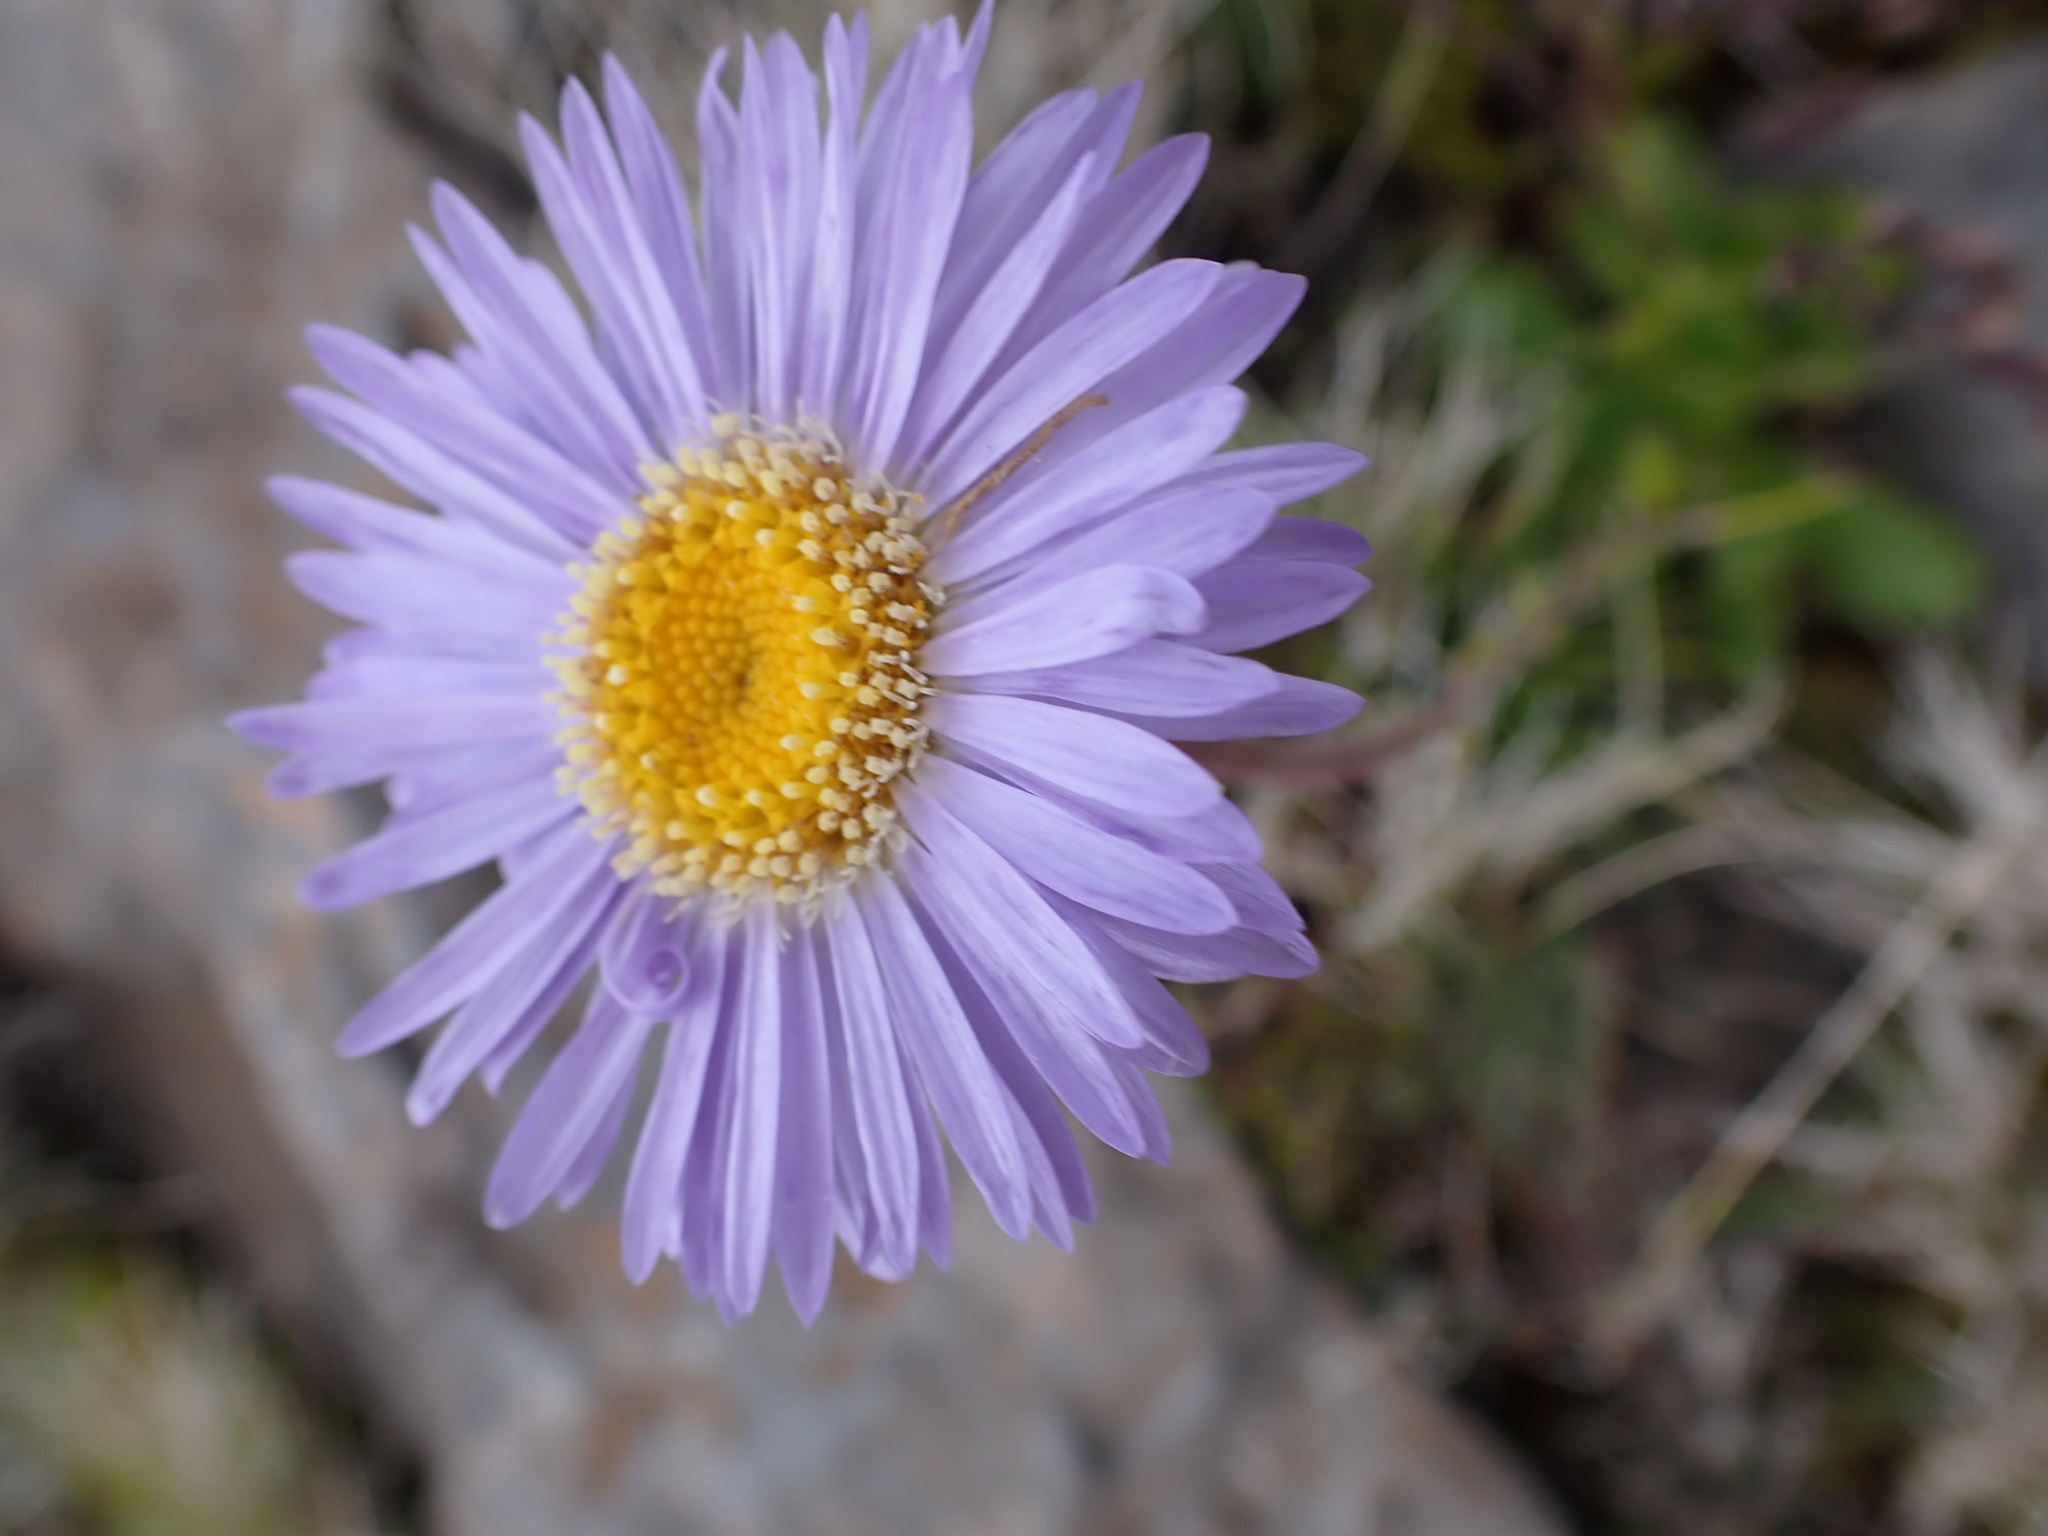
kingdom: Plantae
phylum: Tracheophyta
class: Magnoliopsida
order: Asterales
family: Asteraceae
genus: Brachyscome
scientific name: Brachyscome spathulata
